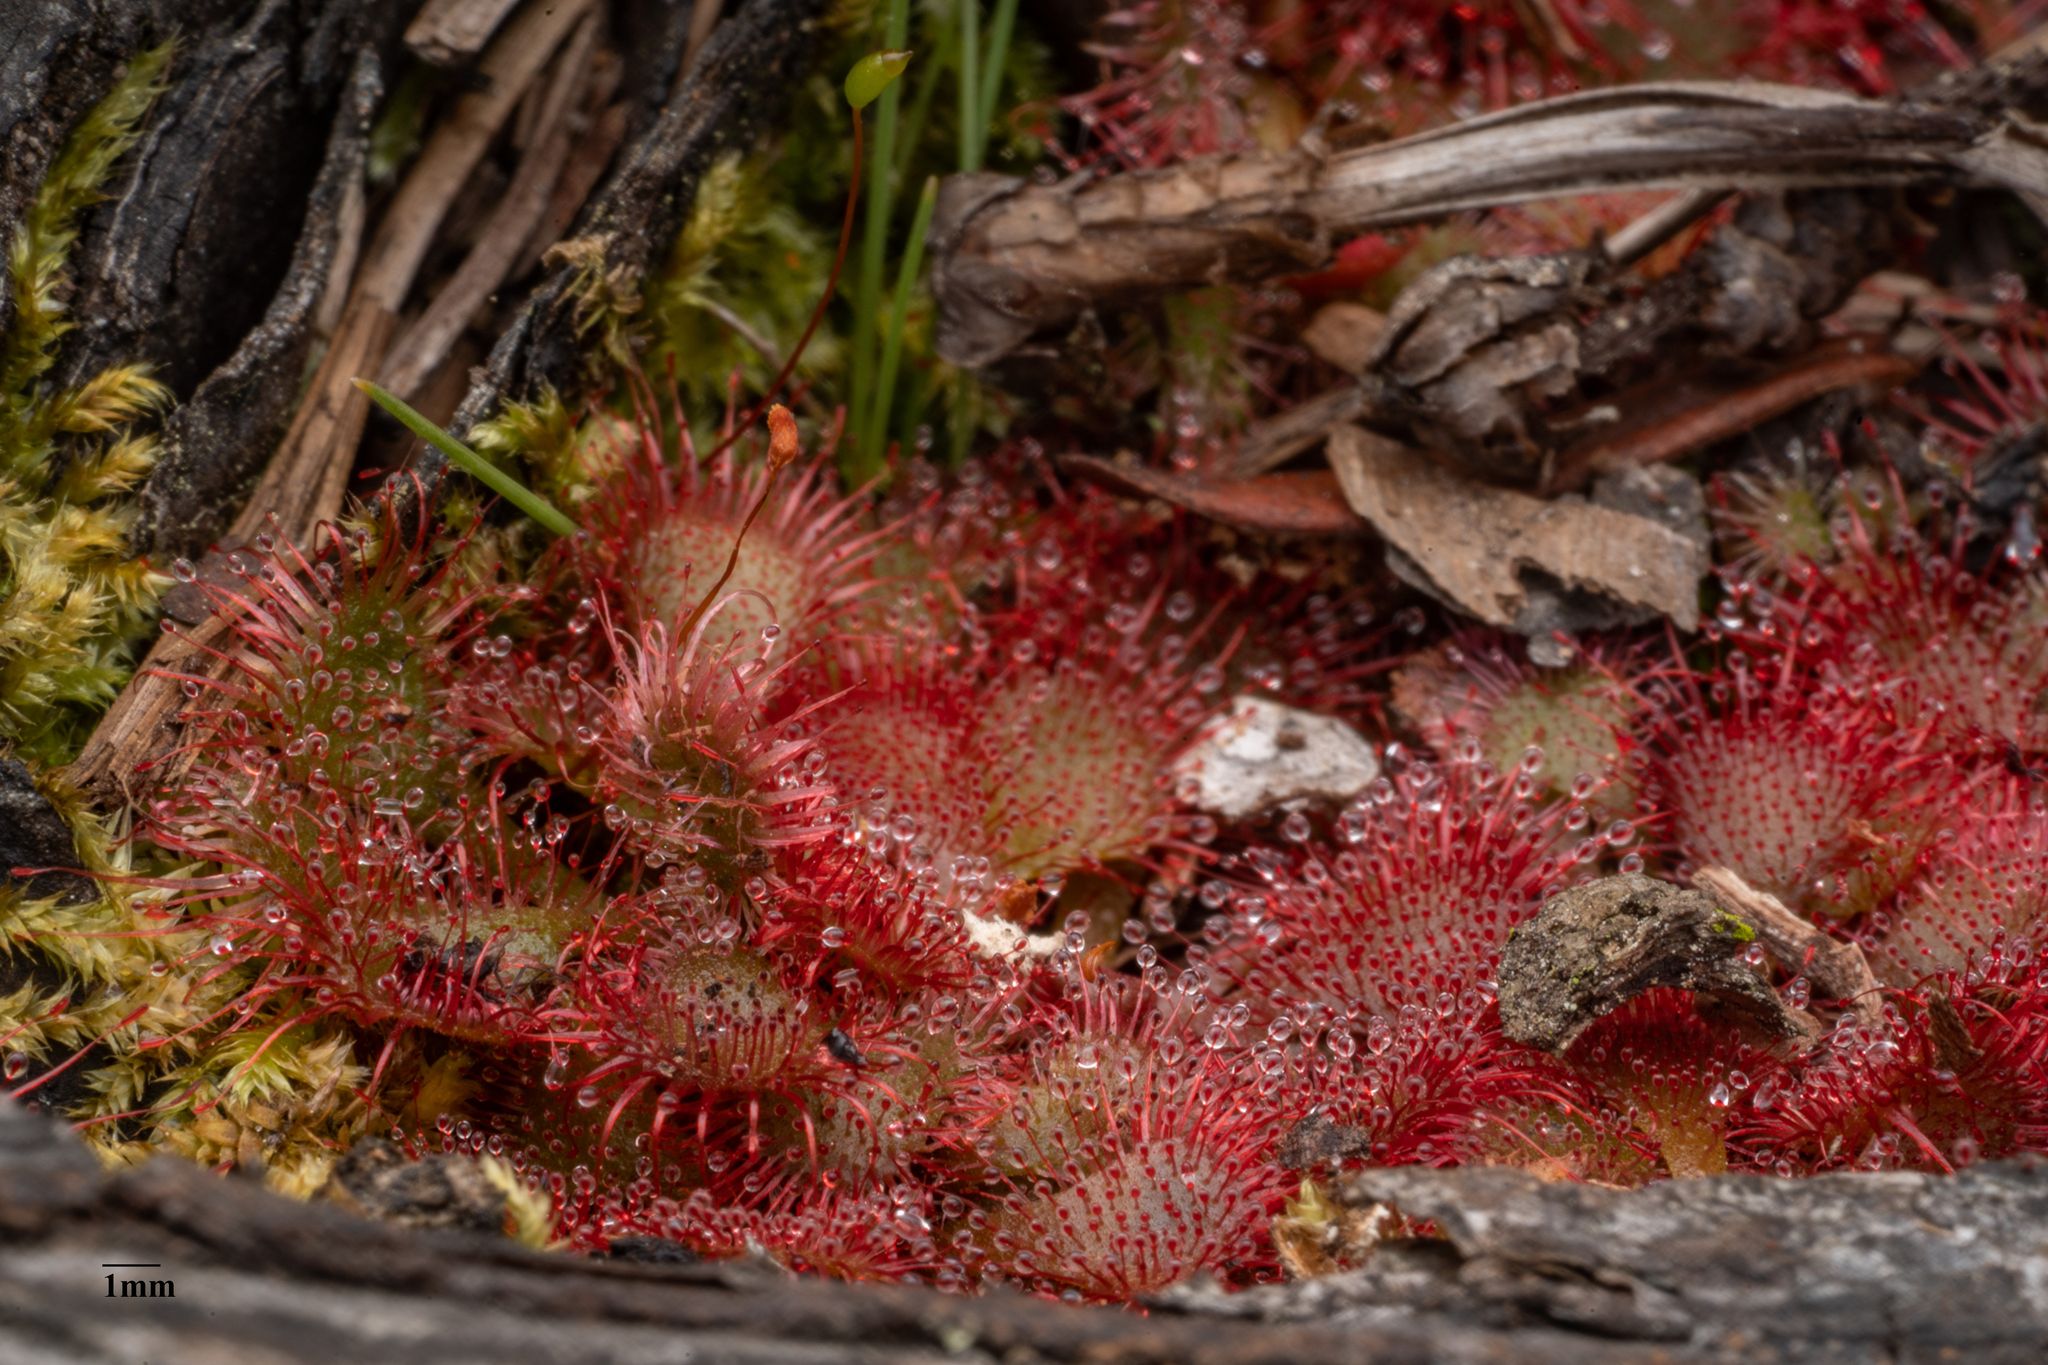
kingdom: Plantae
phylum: Tracheophyta
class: Magnoliopsida
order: Caryophyllales
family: Droseraceae
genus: Drosera
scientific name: Drosera brevifolia
